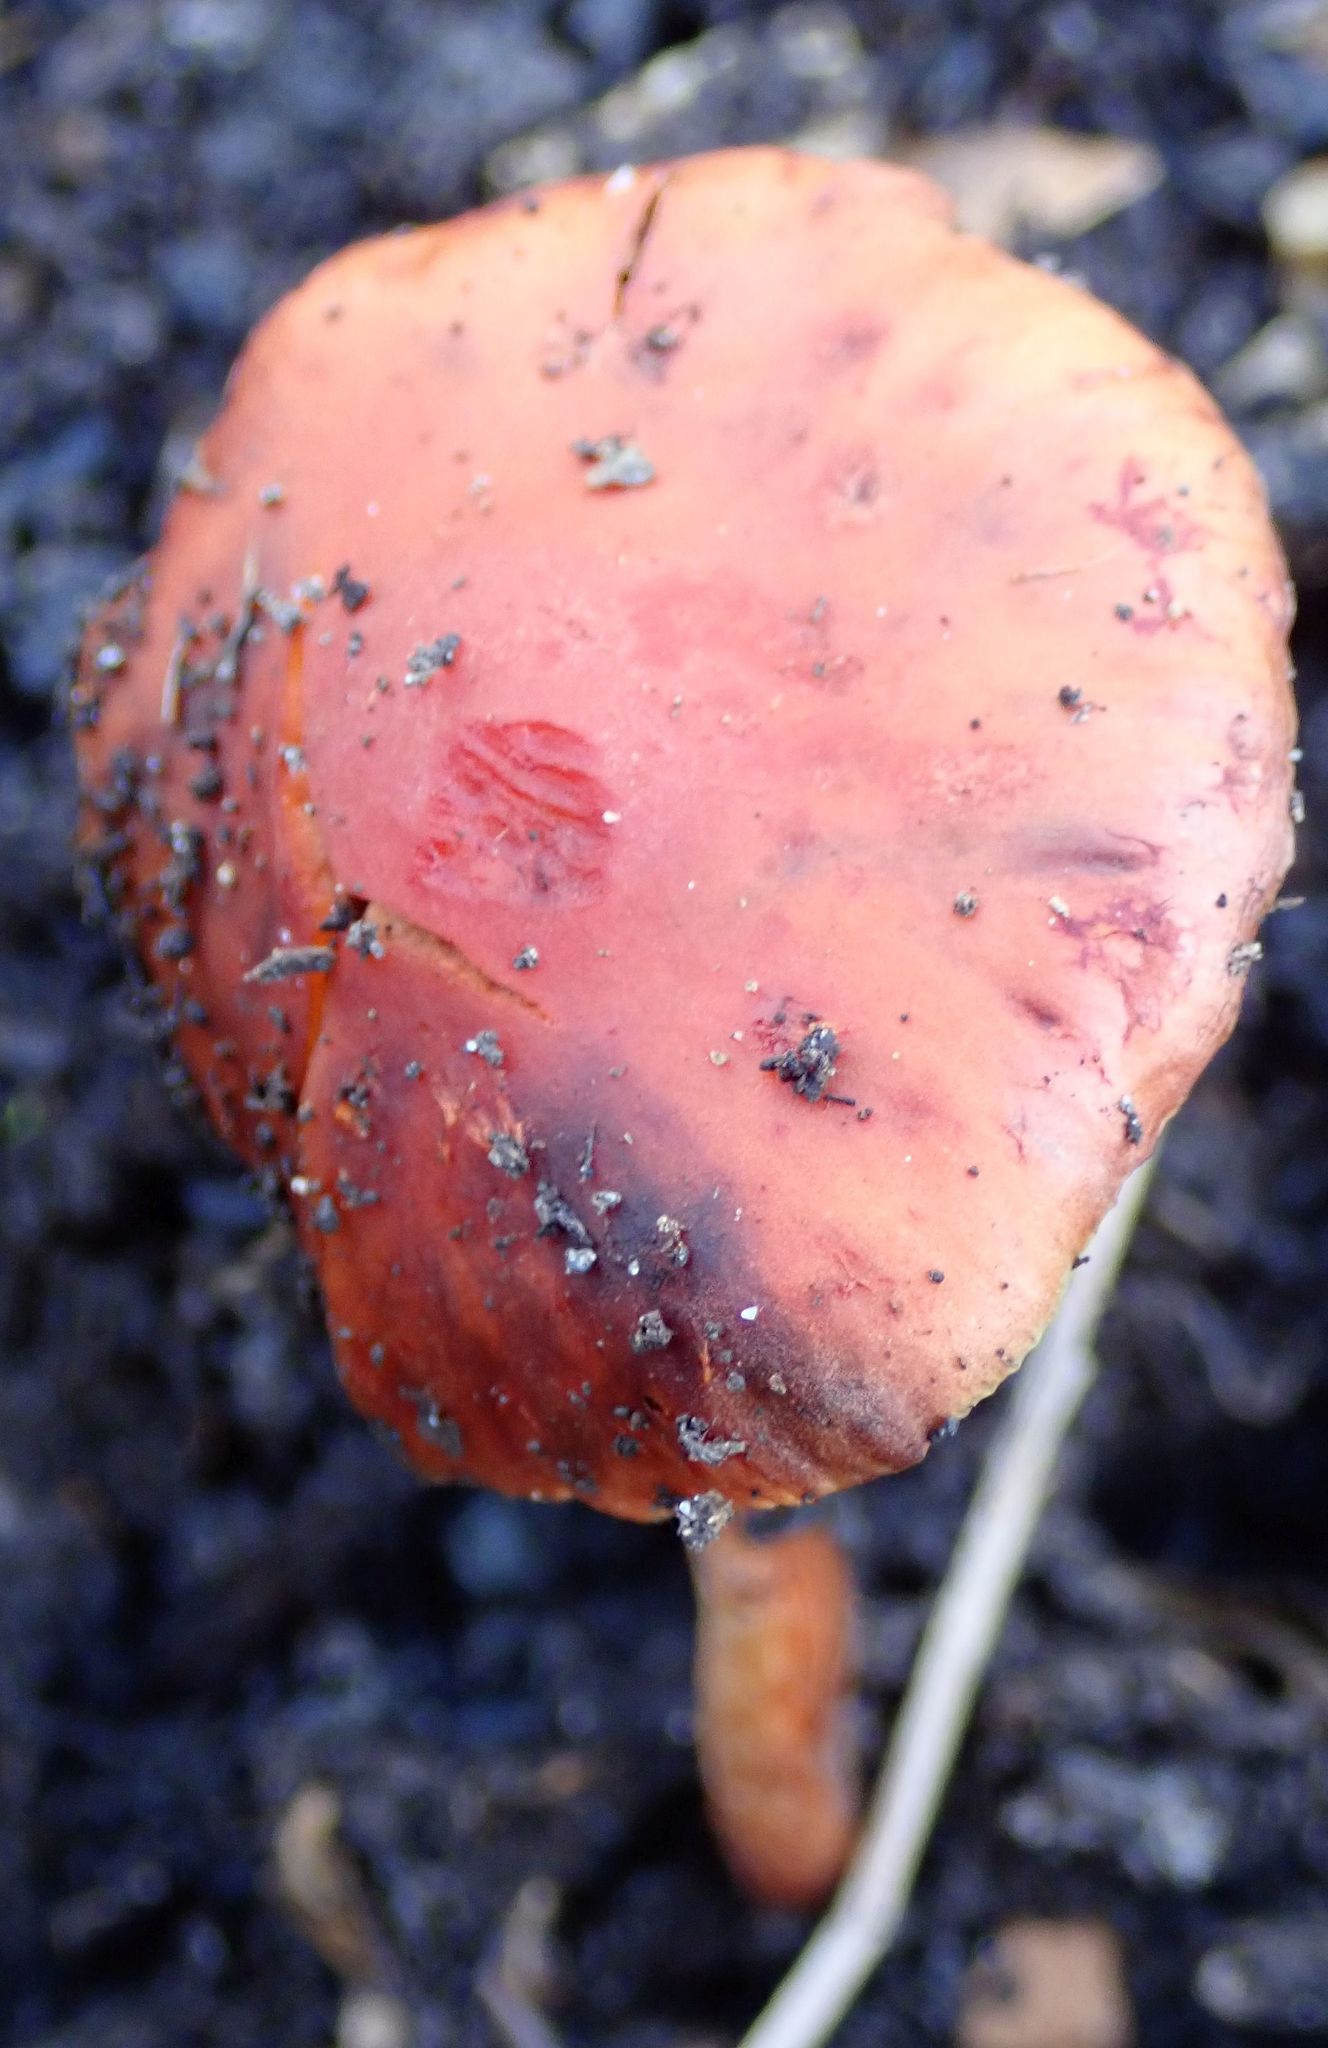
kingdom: Fungi
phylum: Basidiomycota
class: Agaricomycetes
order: Agaricales
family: Strophariaceae
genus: Leratiomyces
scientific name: Leratiomyces ceres
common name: Redlead roundhead
